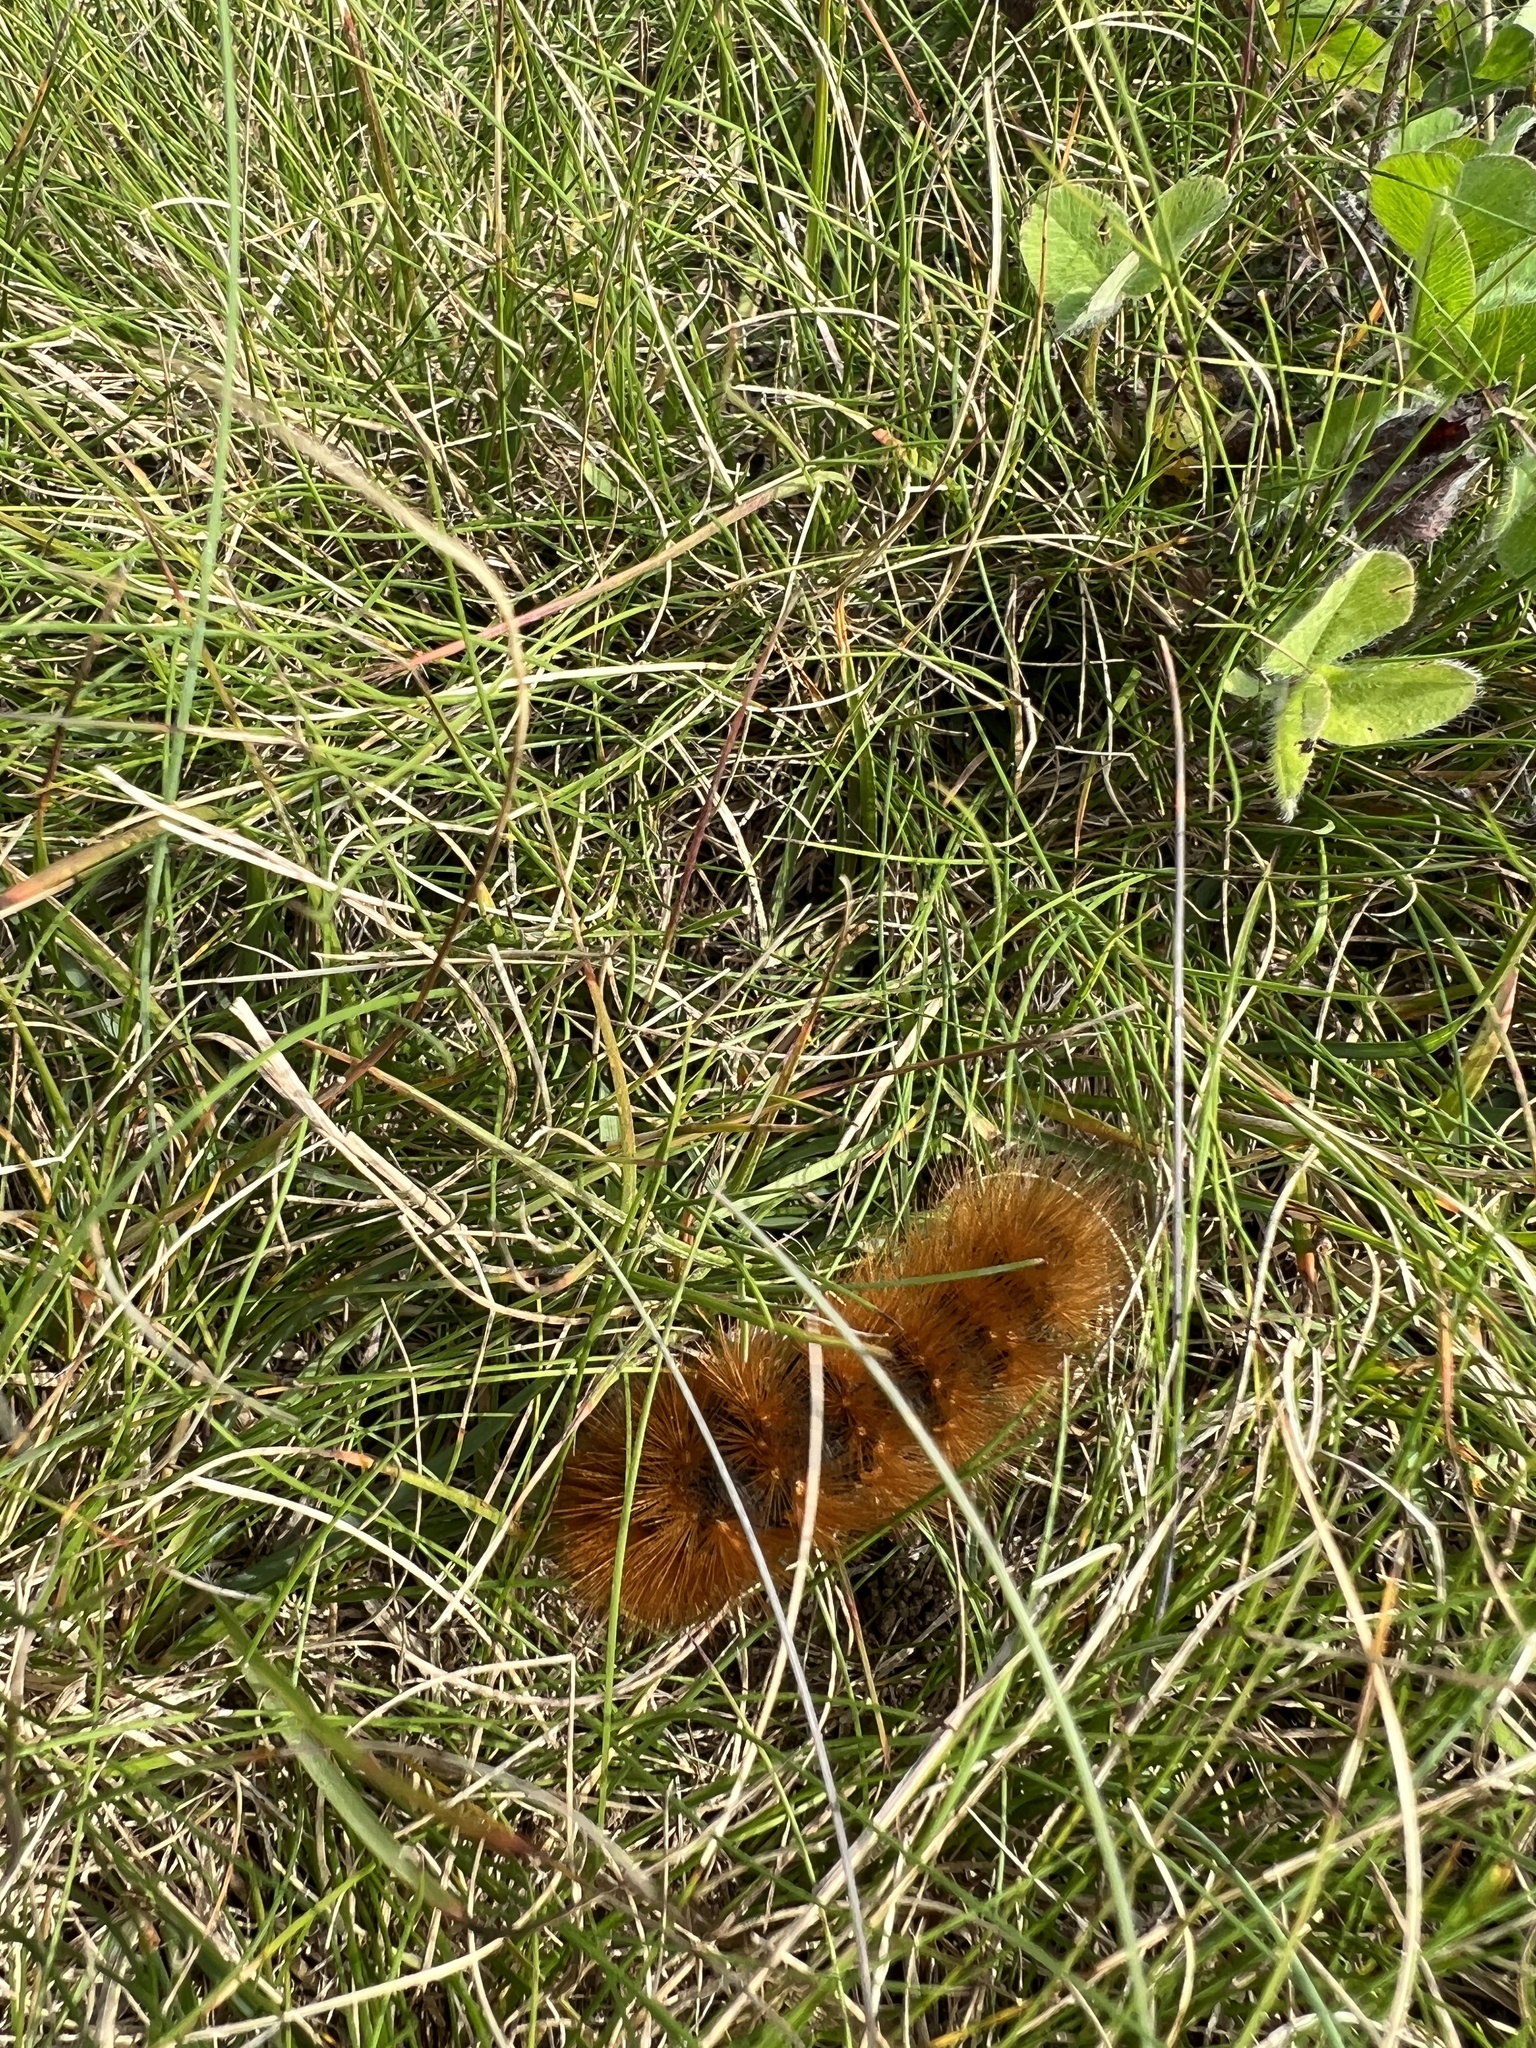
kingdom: Animalia
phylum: Arthropoda
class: Insecta
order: Lepidoptera
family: Erebidae
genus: Estigmene
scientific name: Estigmene acrea
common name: Salt marsh moth
